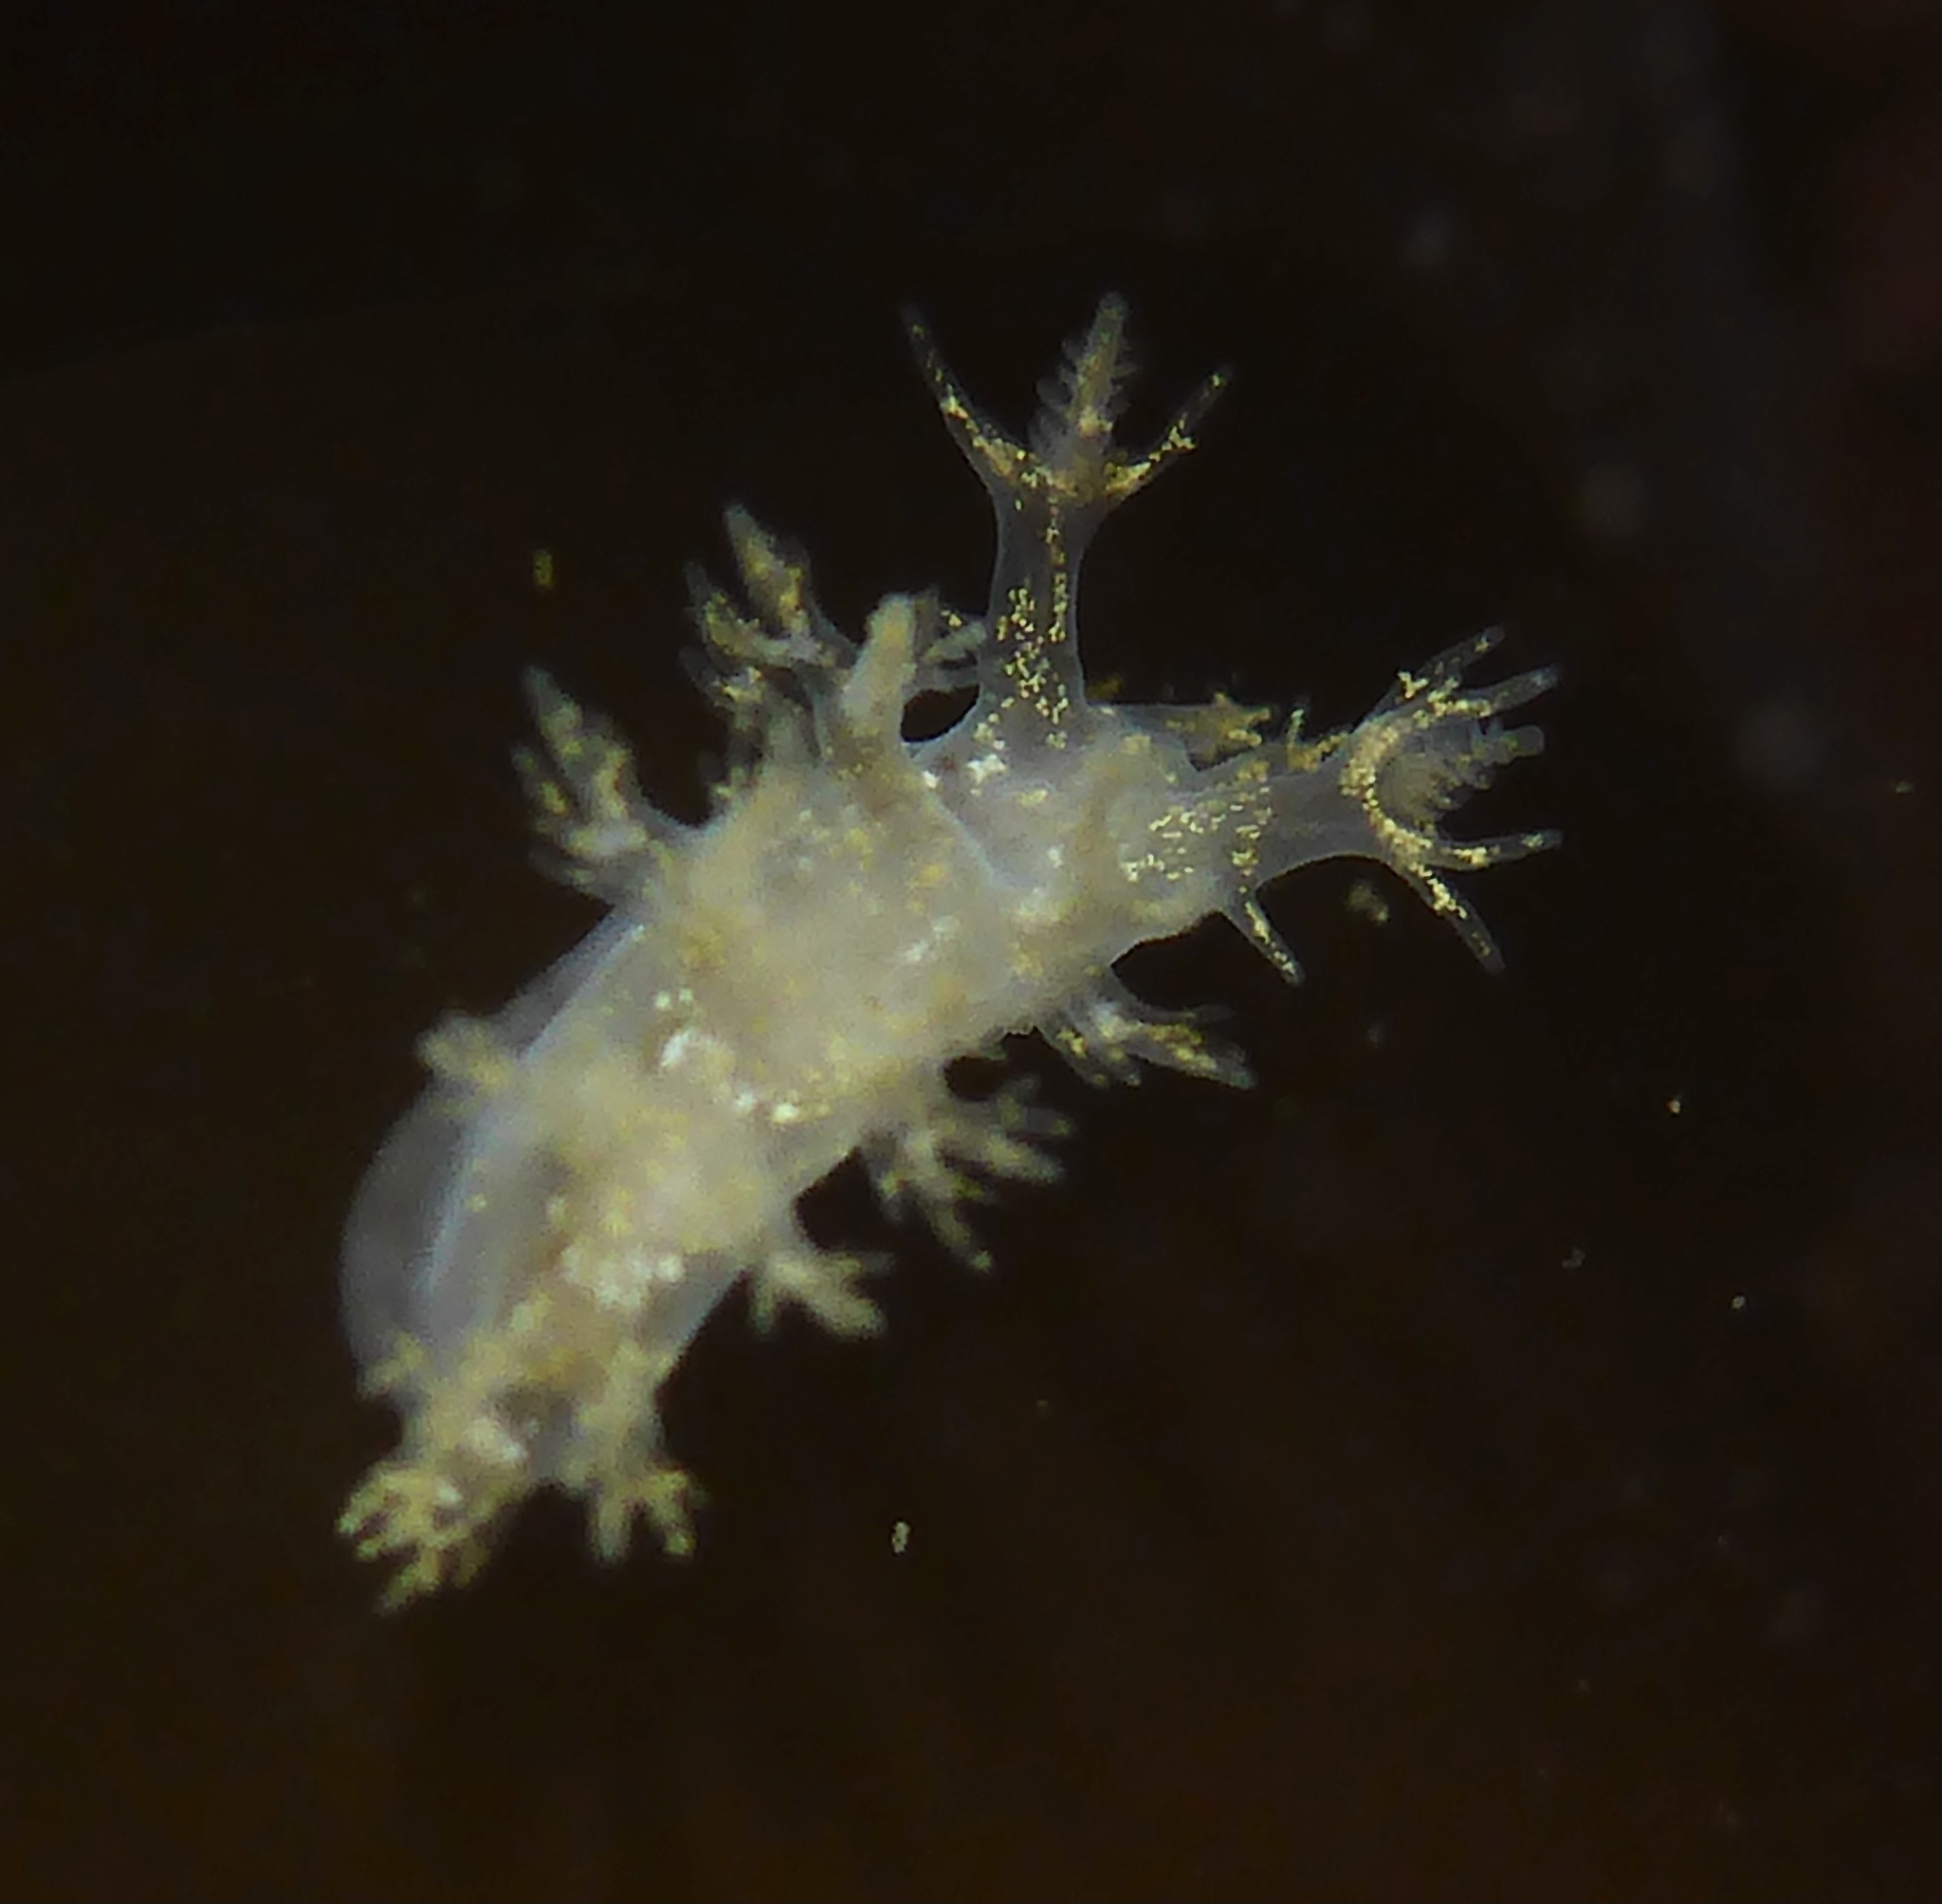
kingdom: Animalia
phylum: Mollusca
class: Gastropoda
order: Nudibranchia
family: Dendronotidae
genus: Dendronotus
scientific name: Dendronotus venustus
